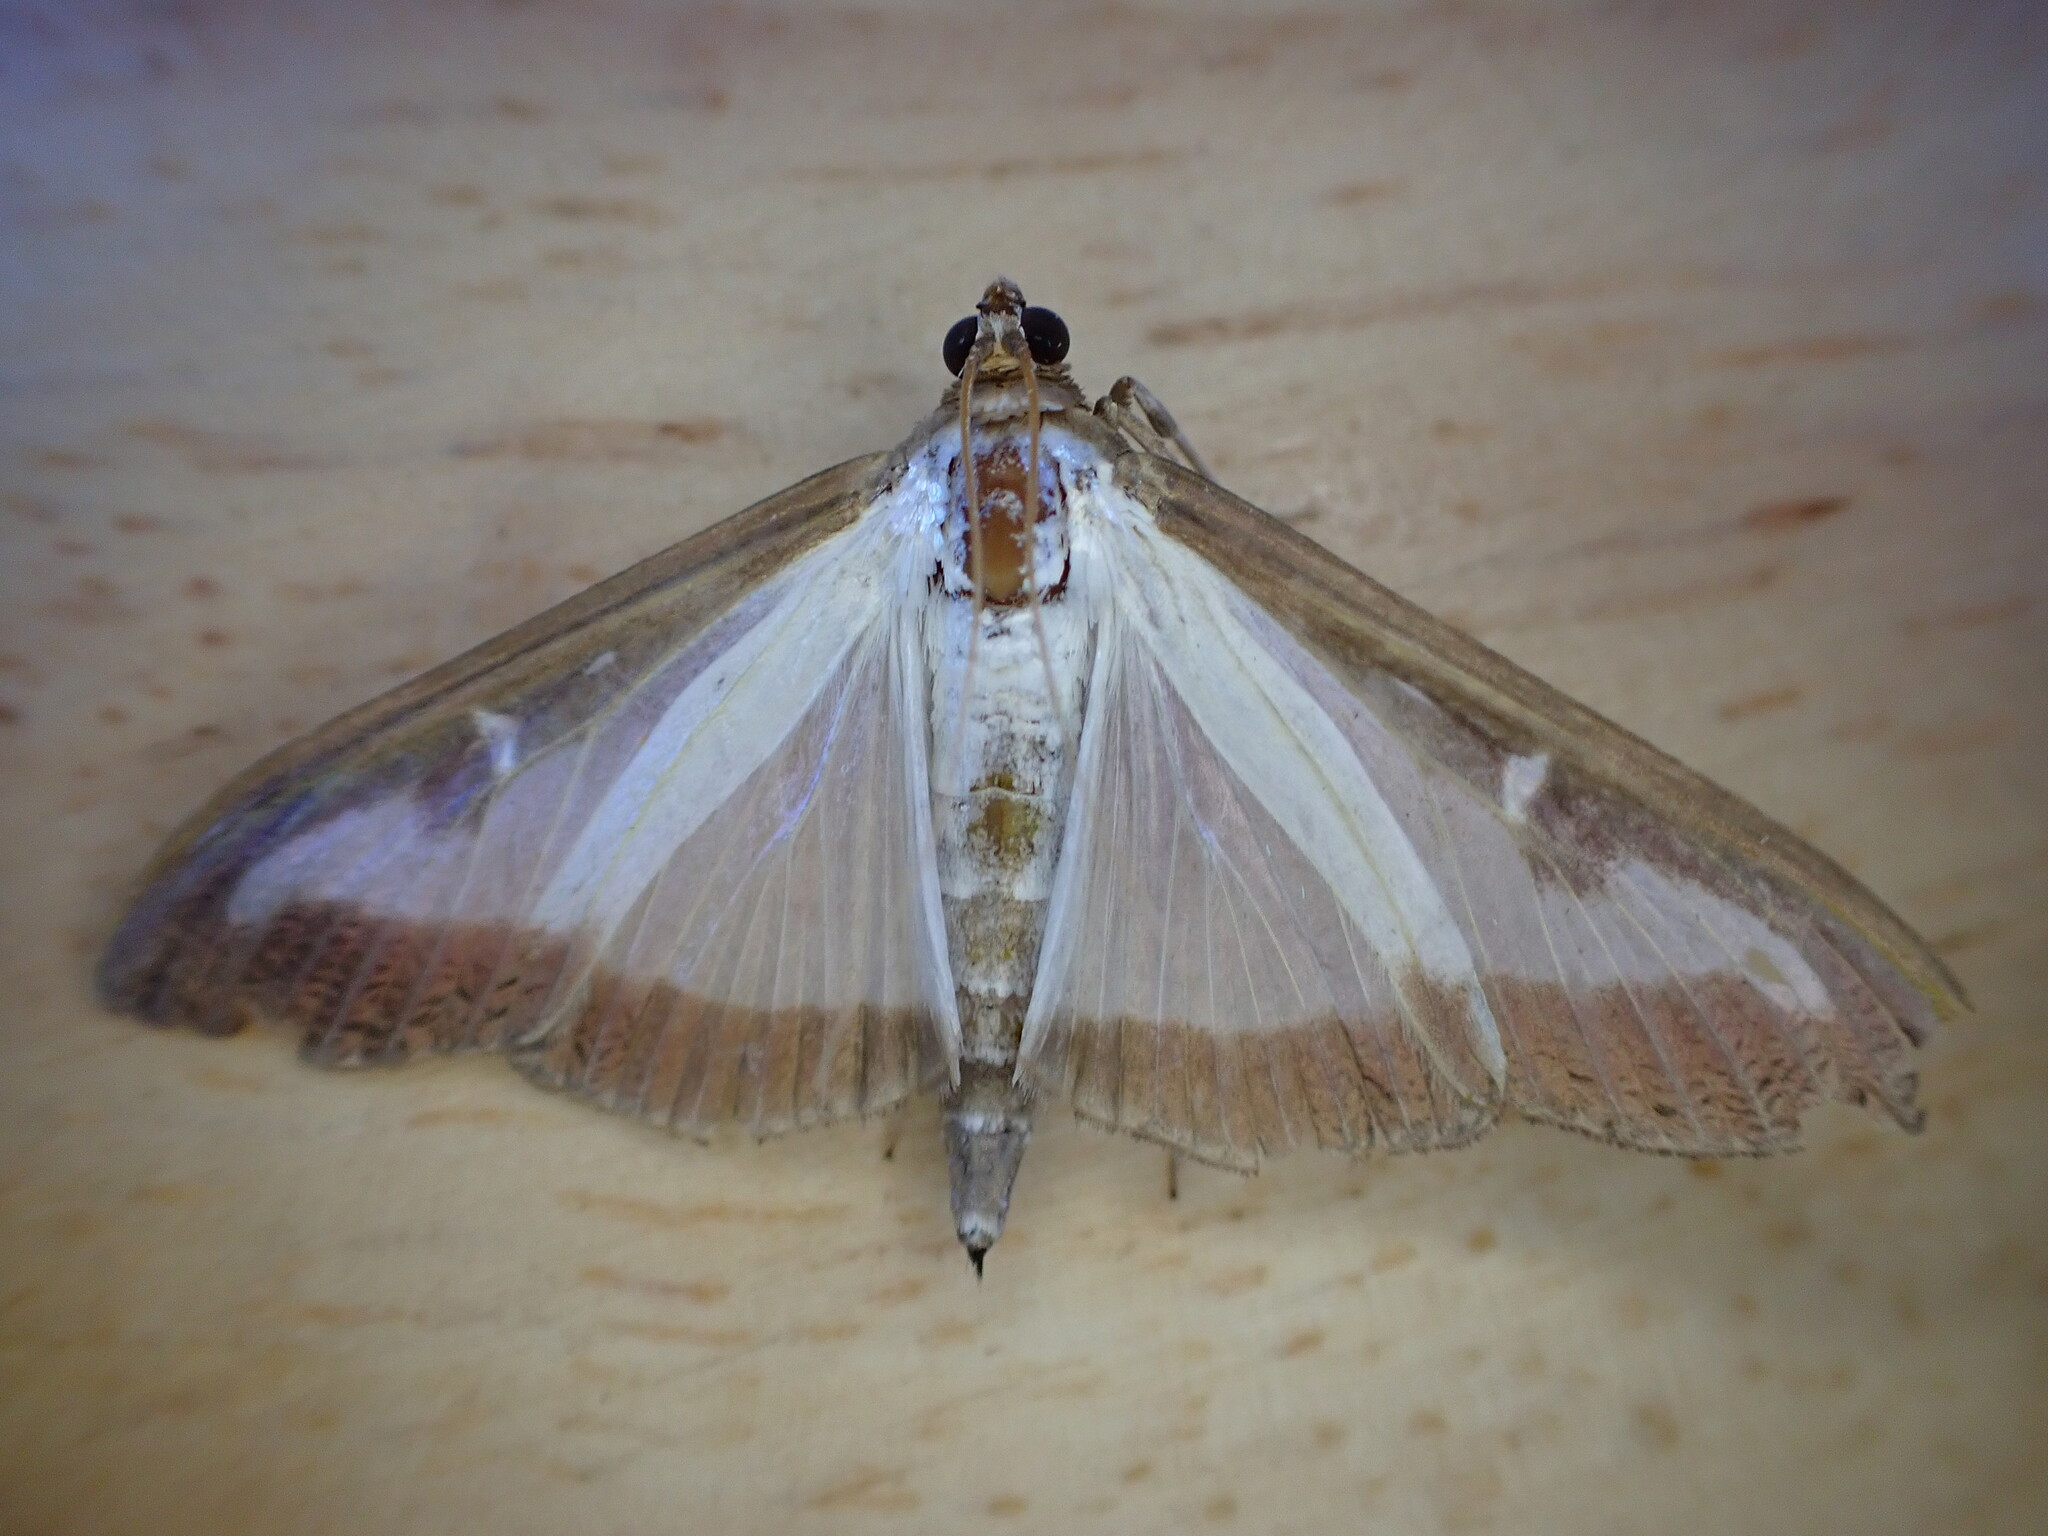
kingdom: Animalia
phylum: Arthropoda
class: Insecta
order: Lepidoptera
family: Crambidae
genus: Cydalima
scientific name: Cydalima perspectalis
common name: Box tree moth
